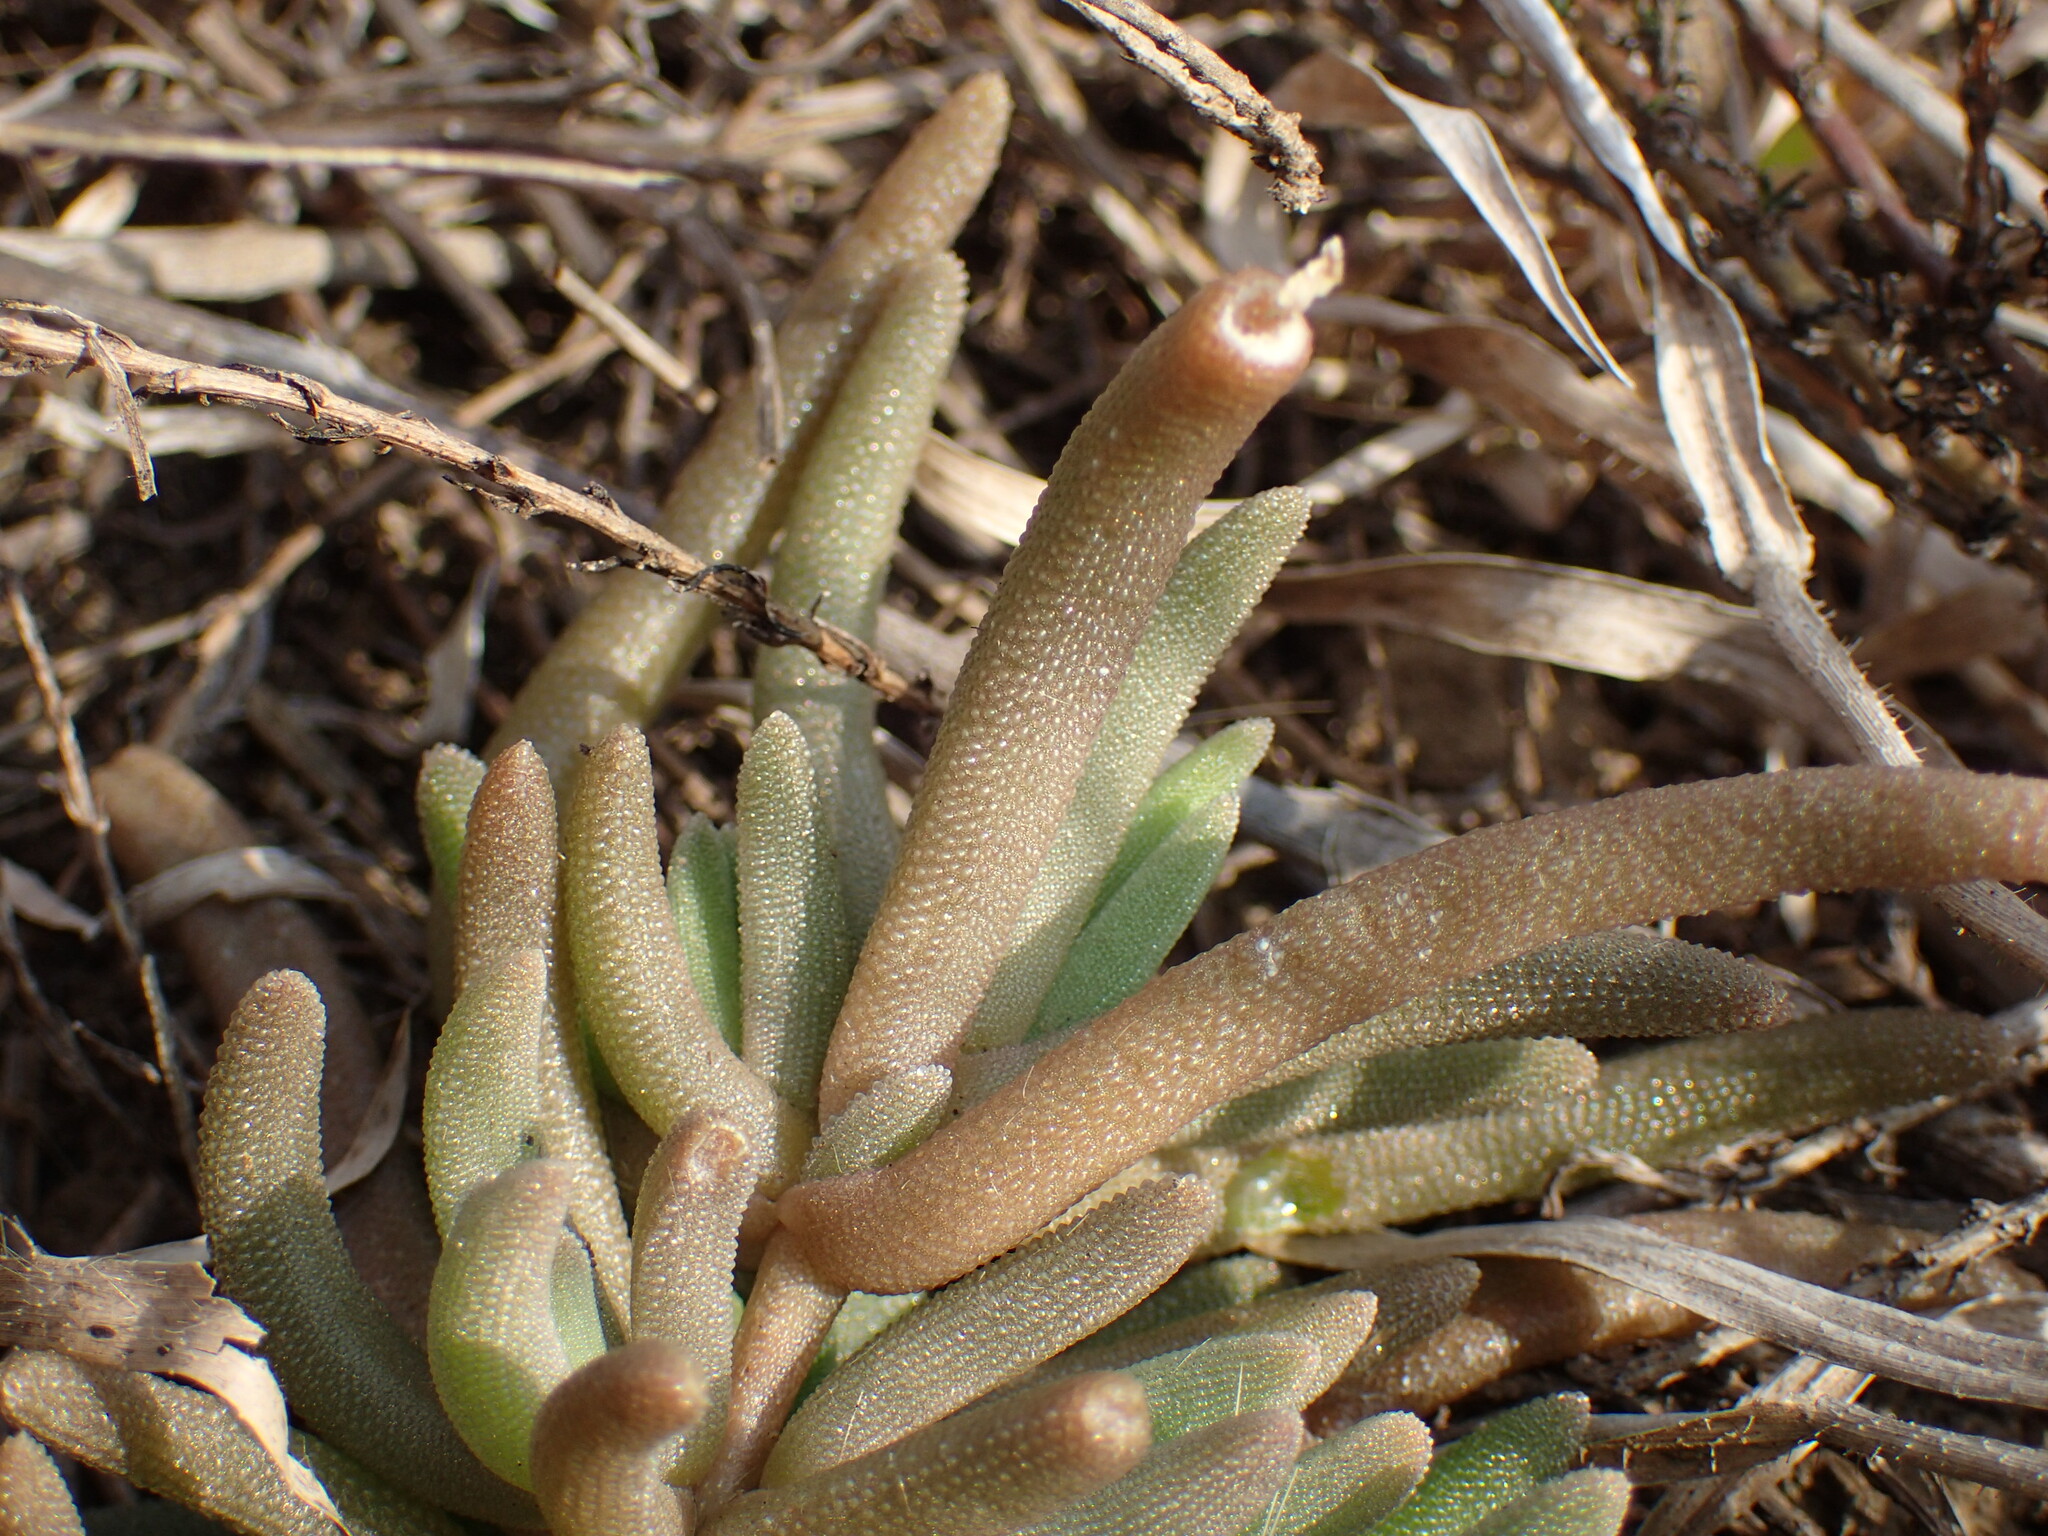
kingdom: Plantae
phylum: Tracheophyta
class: Magnoliopsida
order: Caryophyllales
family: Aizoaceae
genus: Delosperma
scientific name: Delosperma floribundum
